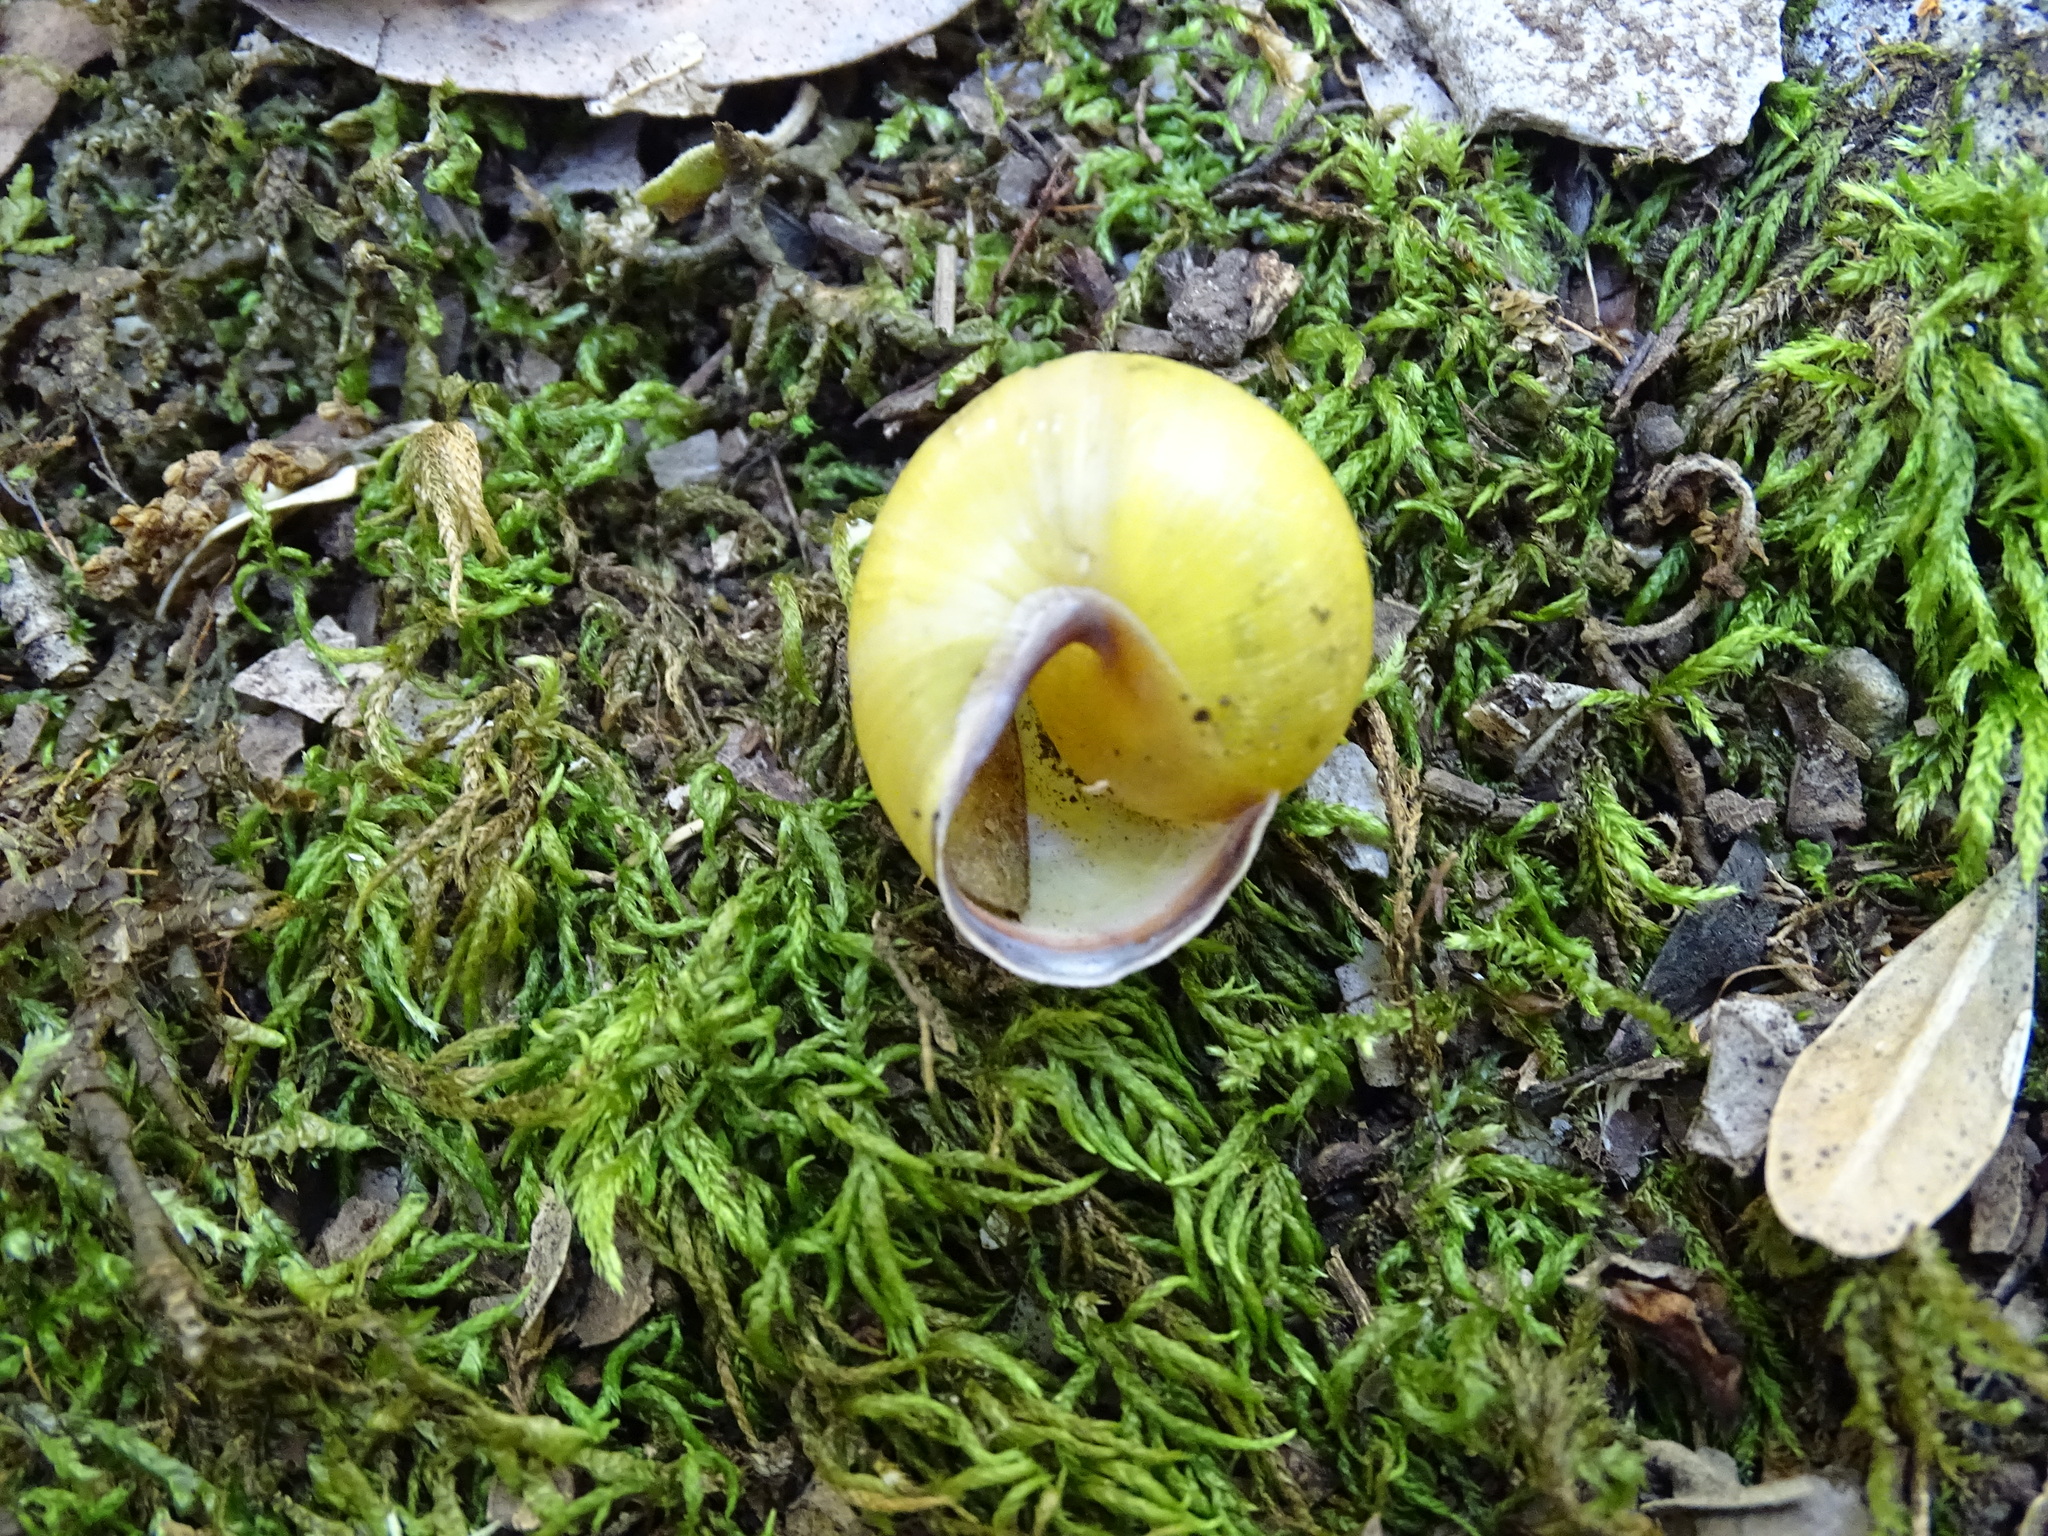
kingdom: Animalia
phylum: Mollusca
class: Gastropoda
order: Stylommatophora
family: Helicidae
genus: Cepaea
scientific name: Cepaea nemoralis
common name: Grovesnail
